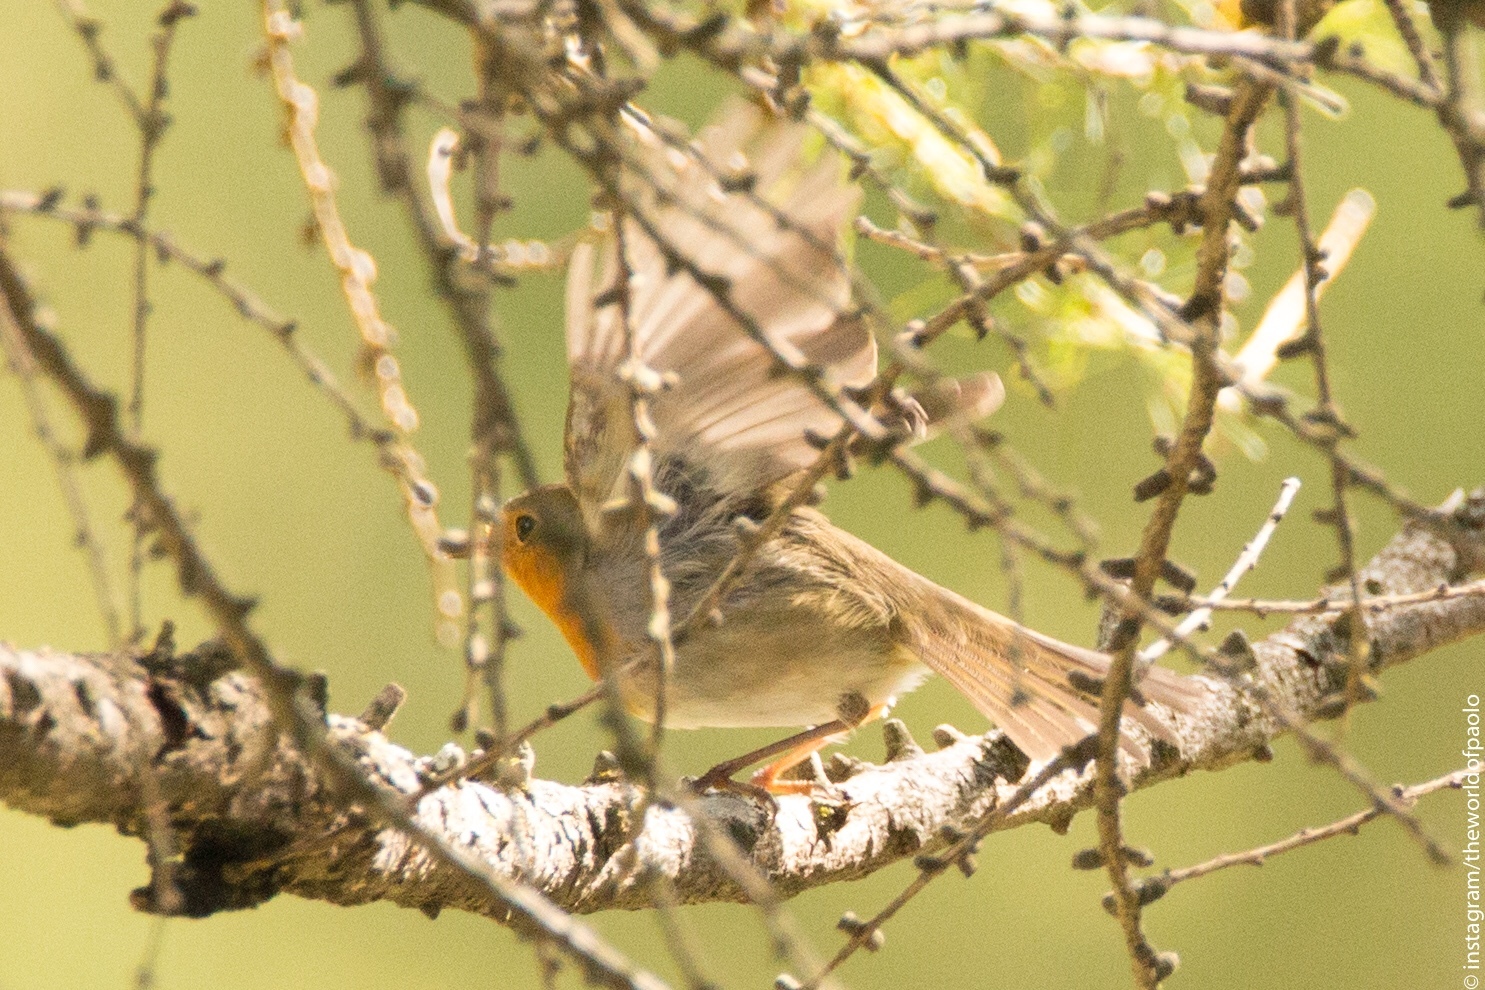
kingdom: Animalia
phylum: Chordata
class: Aves
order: Passeriformes
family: Muscicapidae
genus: Erithacus
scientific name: Erithacus rubecula
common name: European robin
